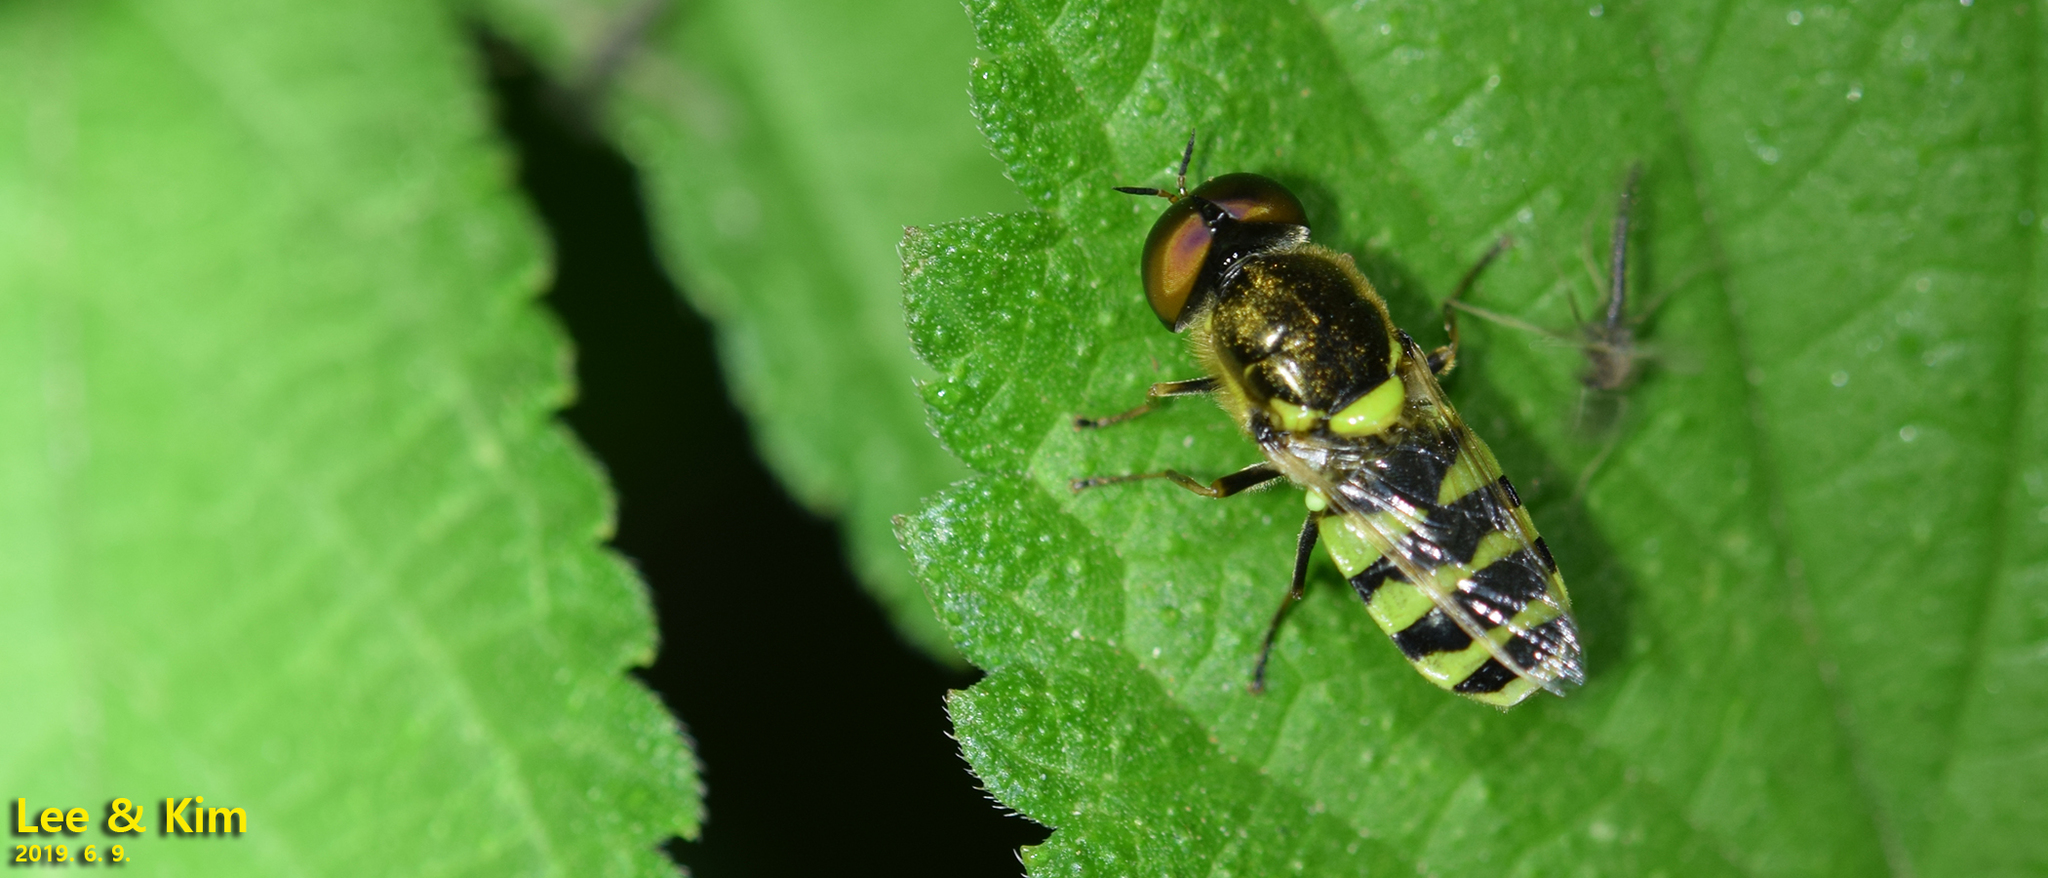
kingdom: Animalia
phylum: Arthropoda
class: Insecta
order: Diptera
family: Stratiomyidae
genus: Odontomyia
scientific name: Odontomyia garatas
